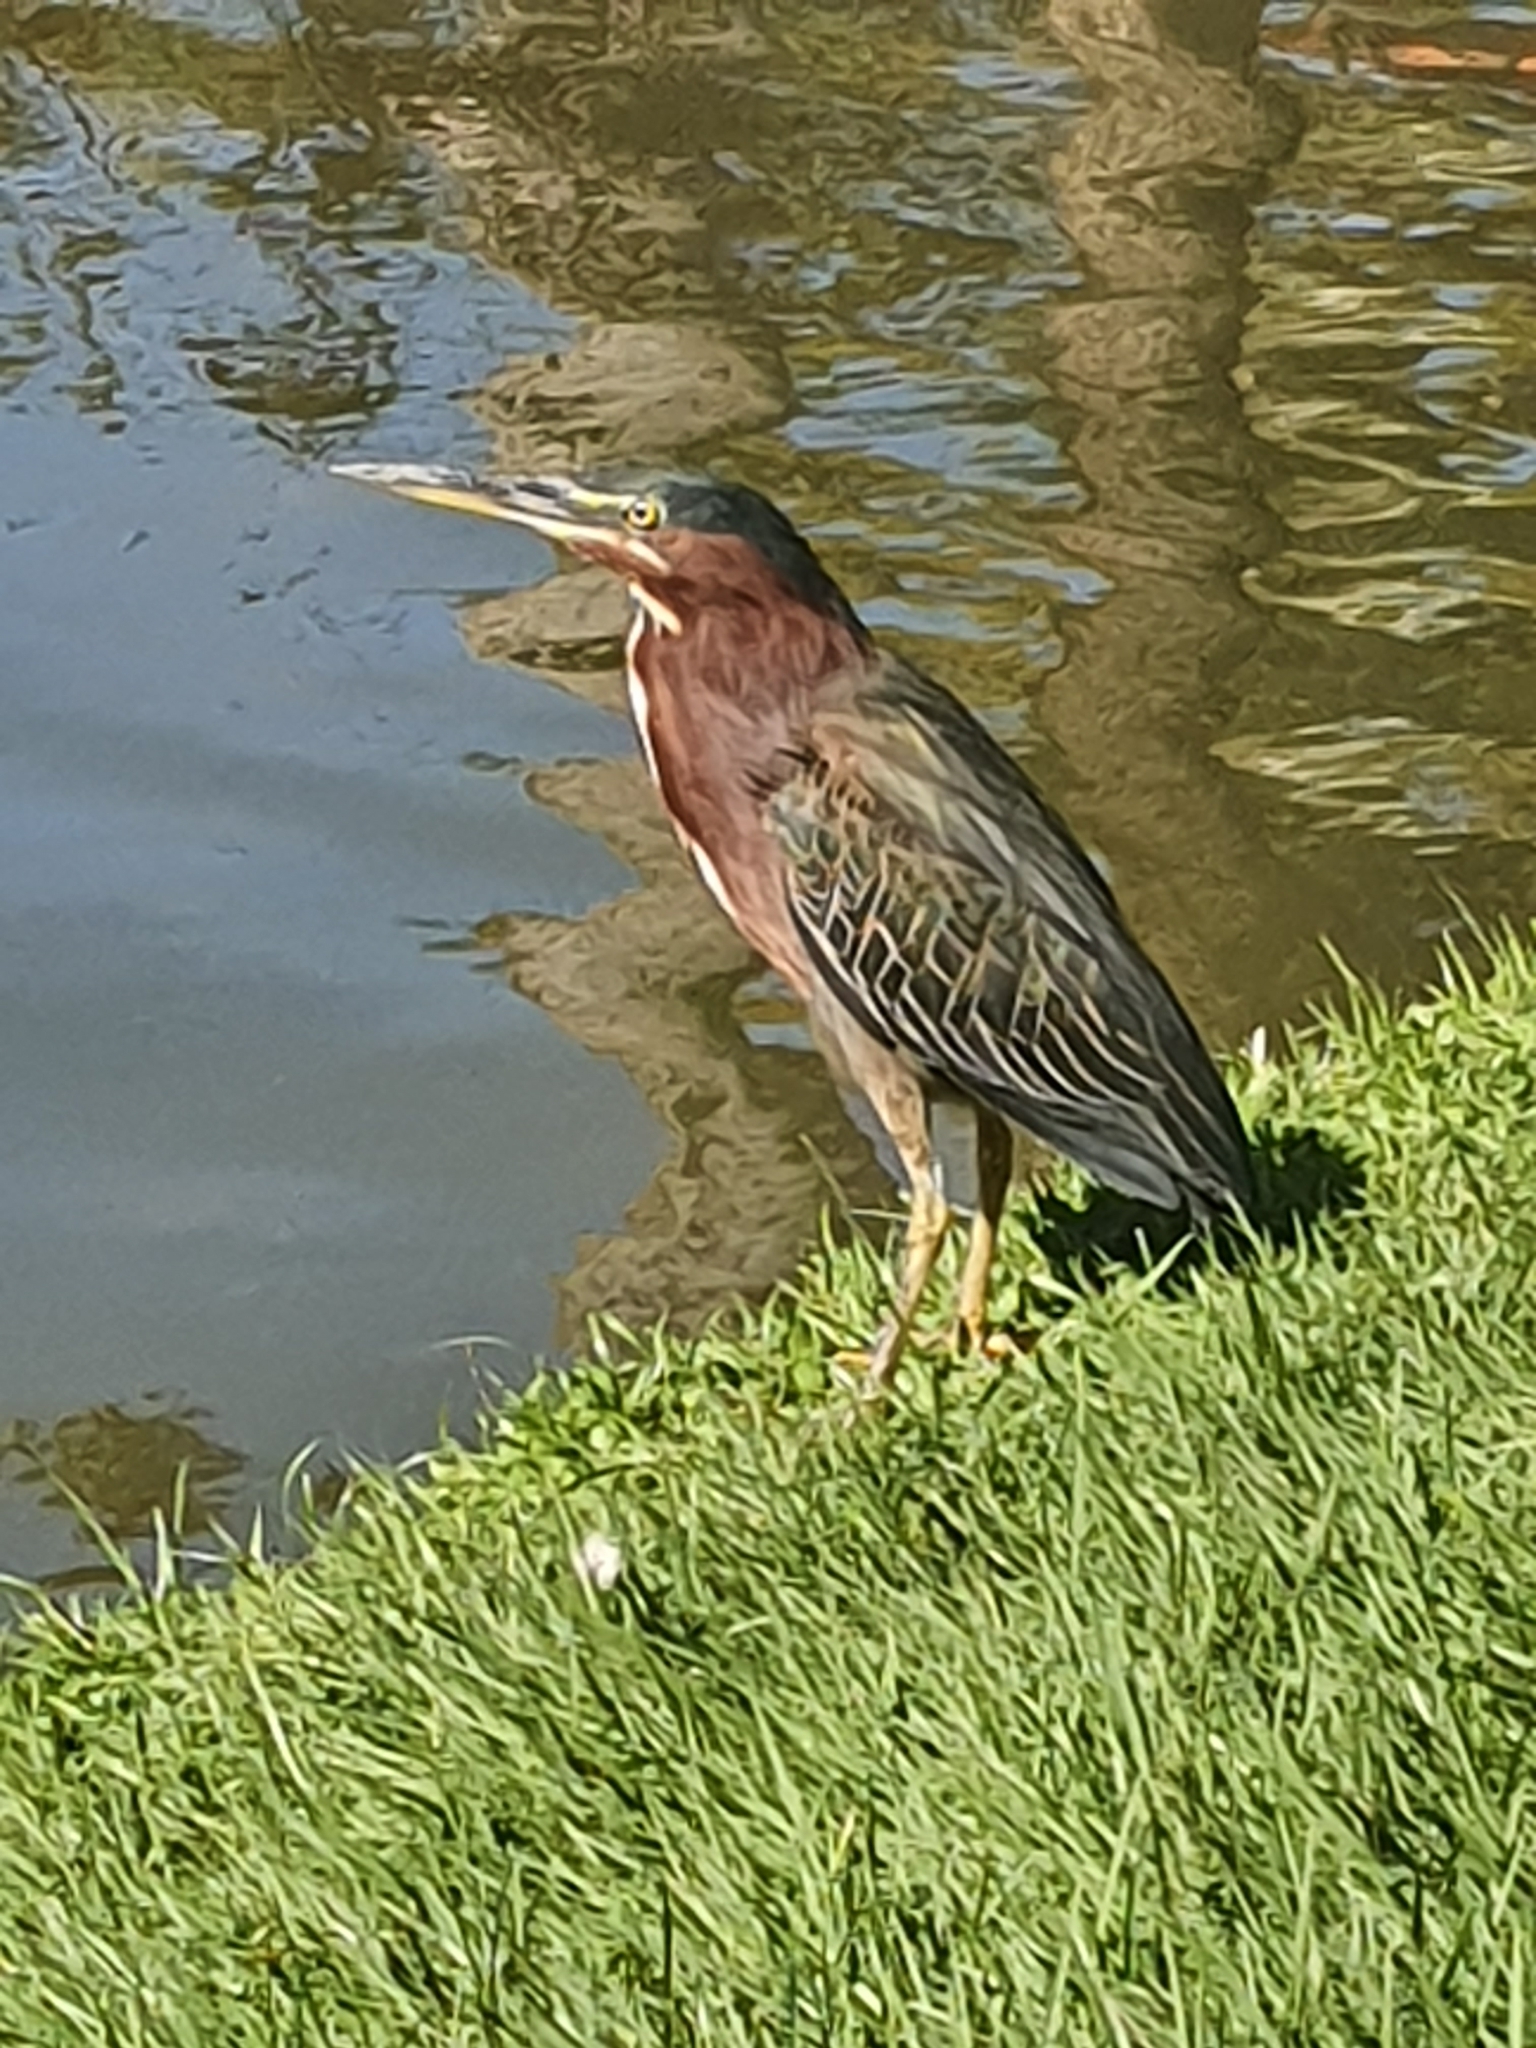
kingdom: Animalia
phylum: Chordata
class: Aves
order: Pelecaniformes
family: Ardeidae
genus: Butorides
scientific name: Butorides virescens
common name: Green heron
